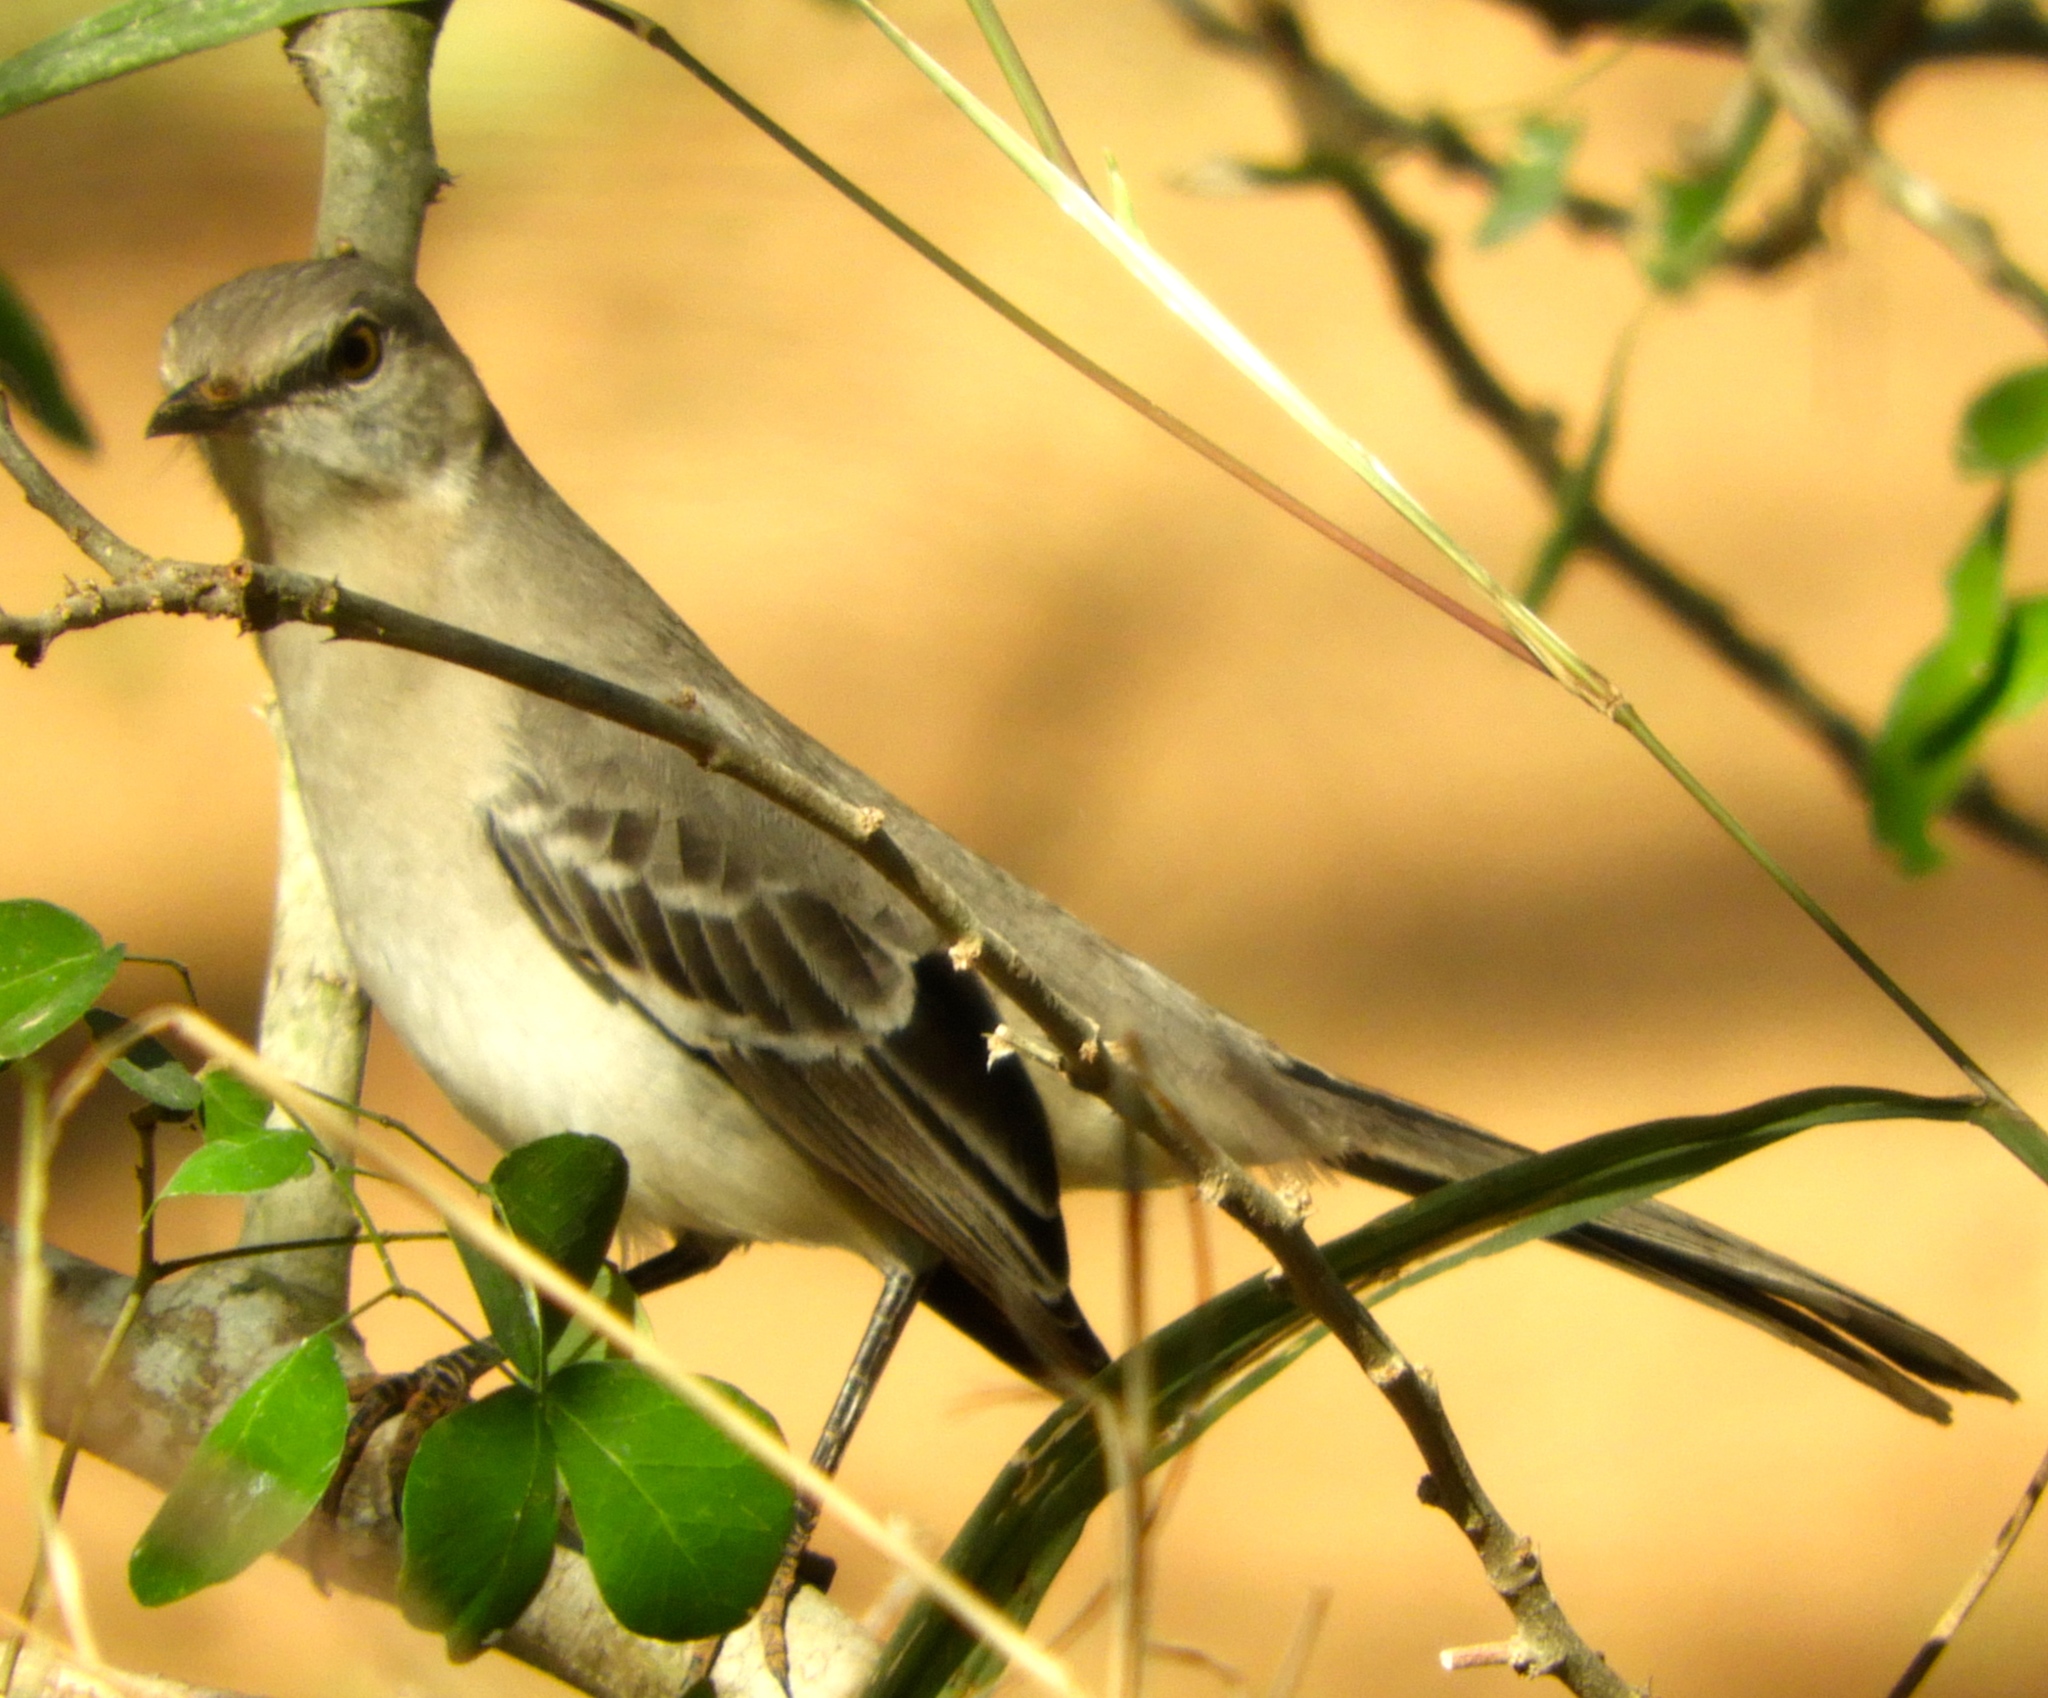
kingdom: Animalia
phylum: Chordata
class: Aves
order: Passeriformes
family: Mimidae
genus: Mimus
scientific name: Mimus polyglottos
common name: Northern mockingbird
